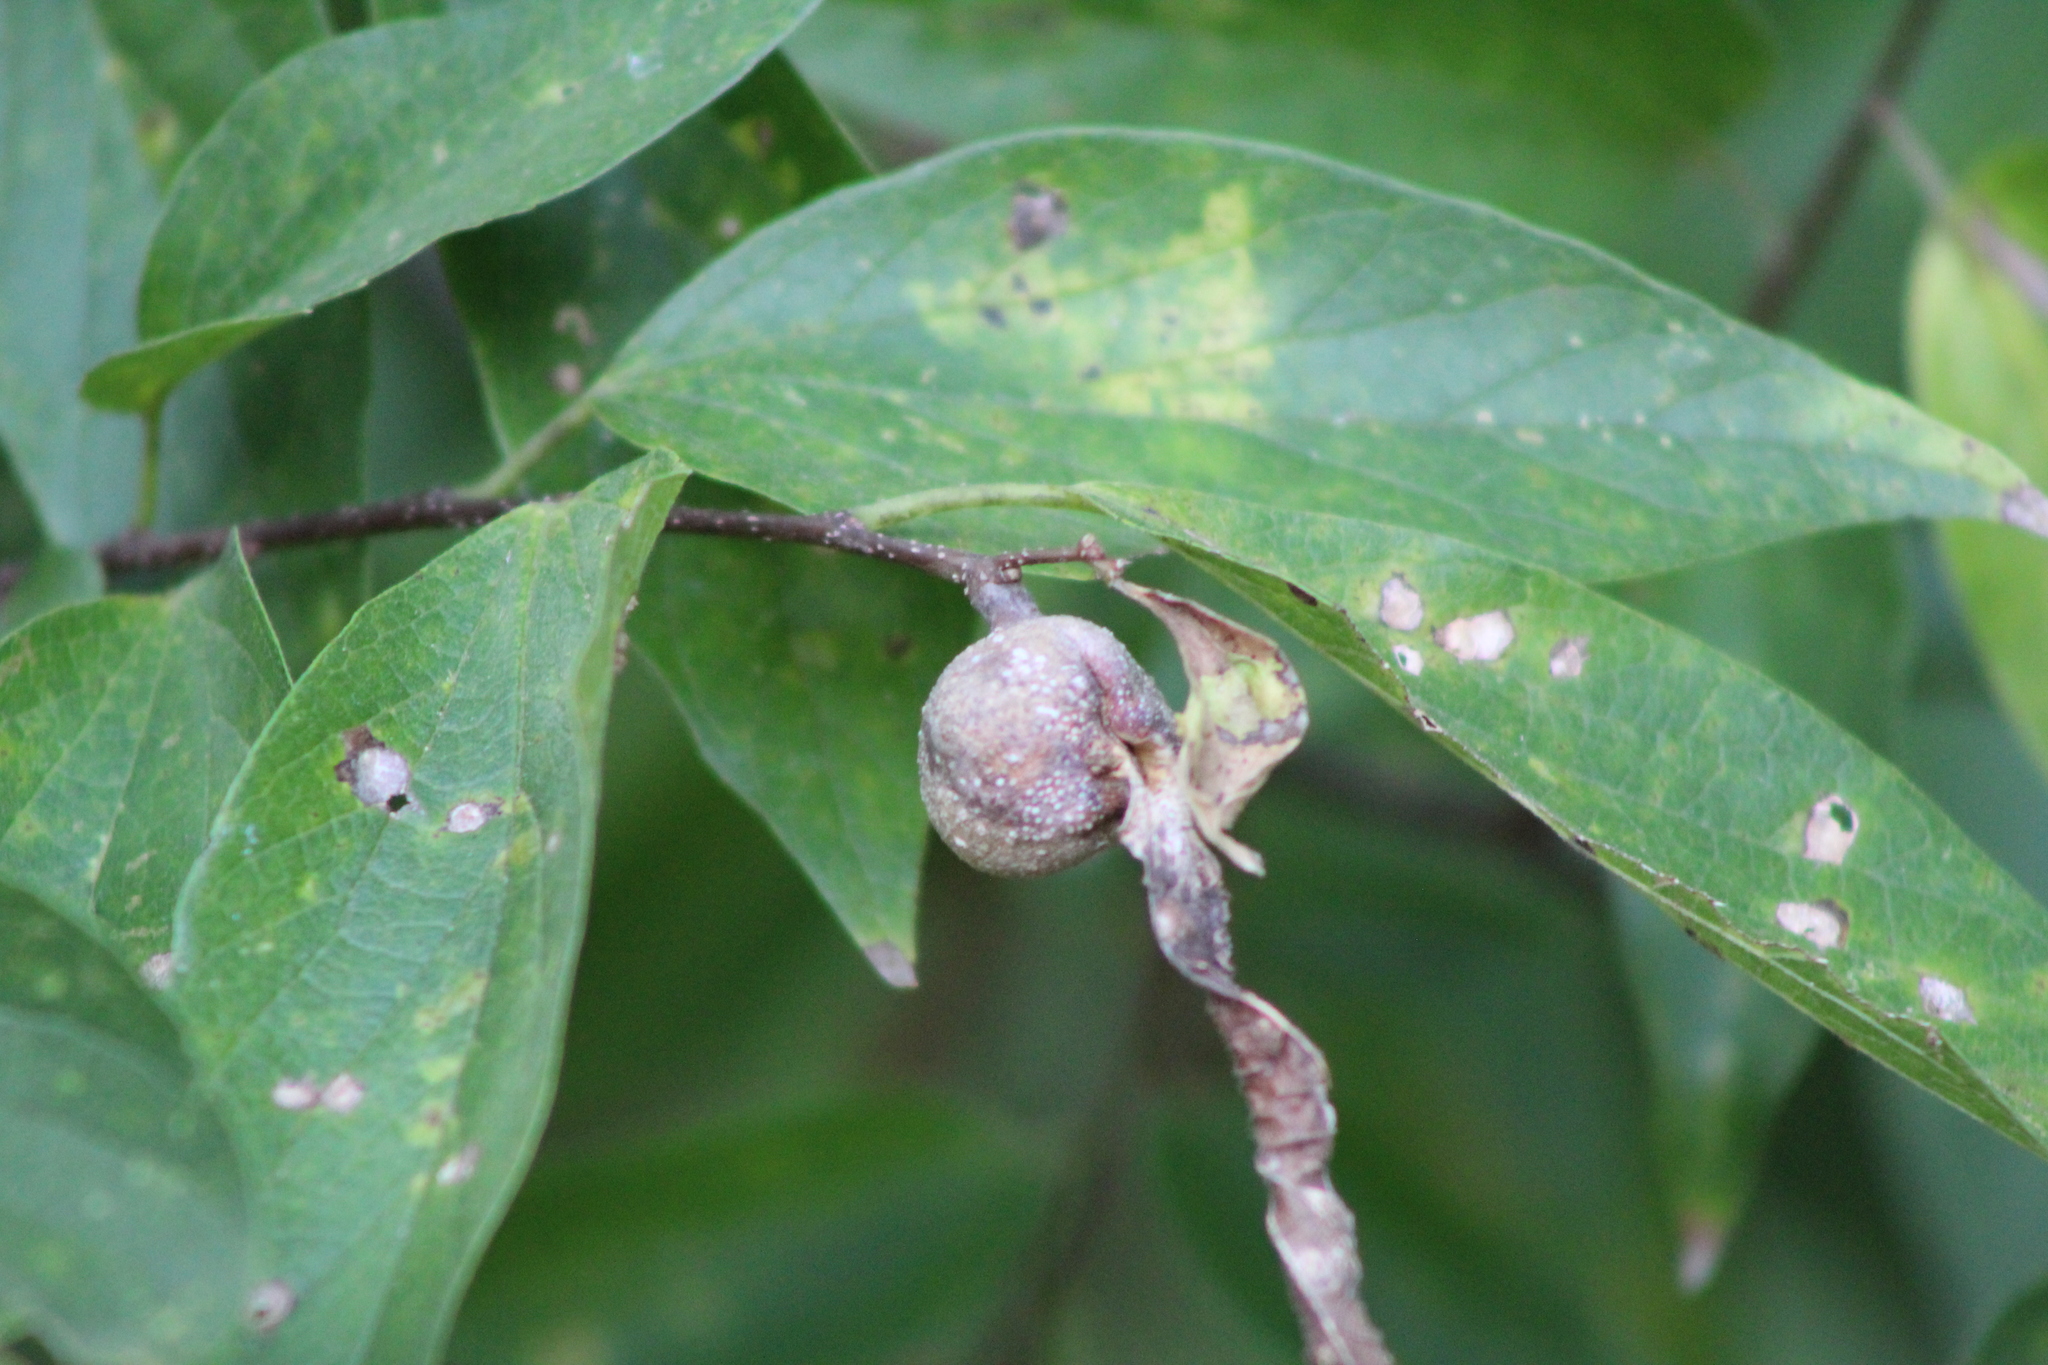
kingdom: Animalia
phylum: Arthropoda
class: Insecta
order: Hemiptera
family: Aphalaridae
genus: Pachypsylla
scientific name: Pachypsylla venusta
